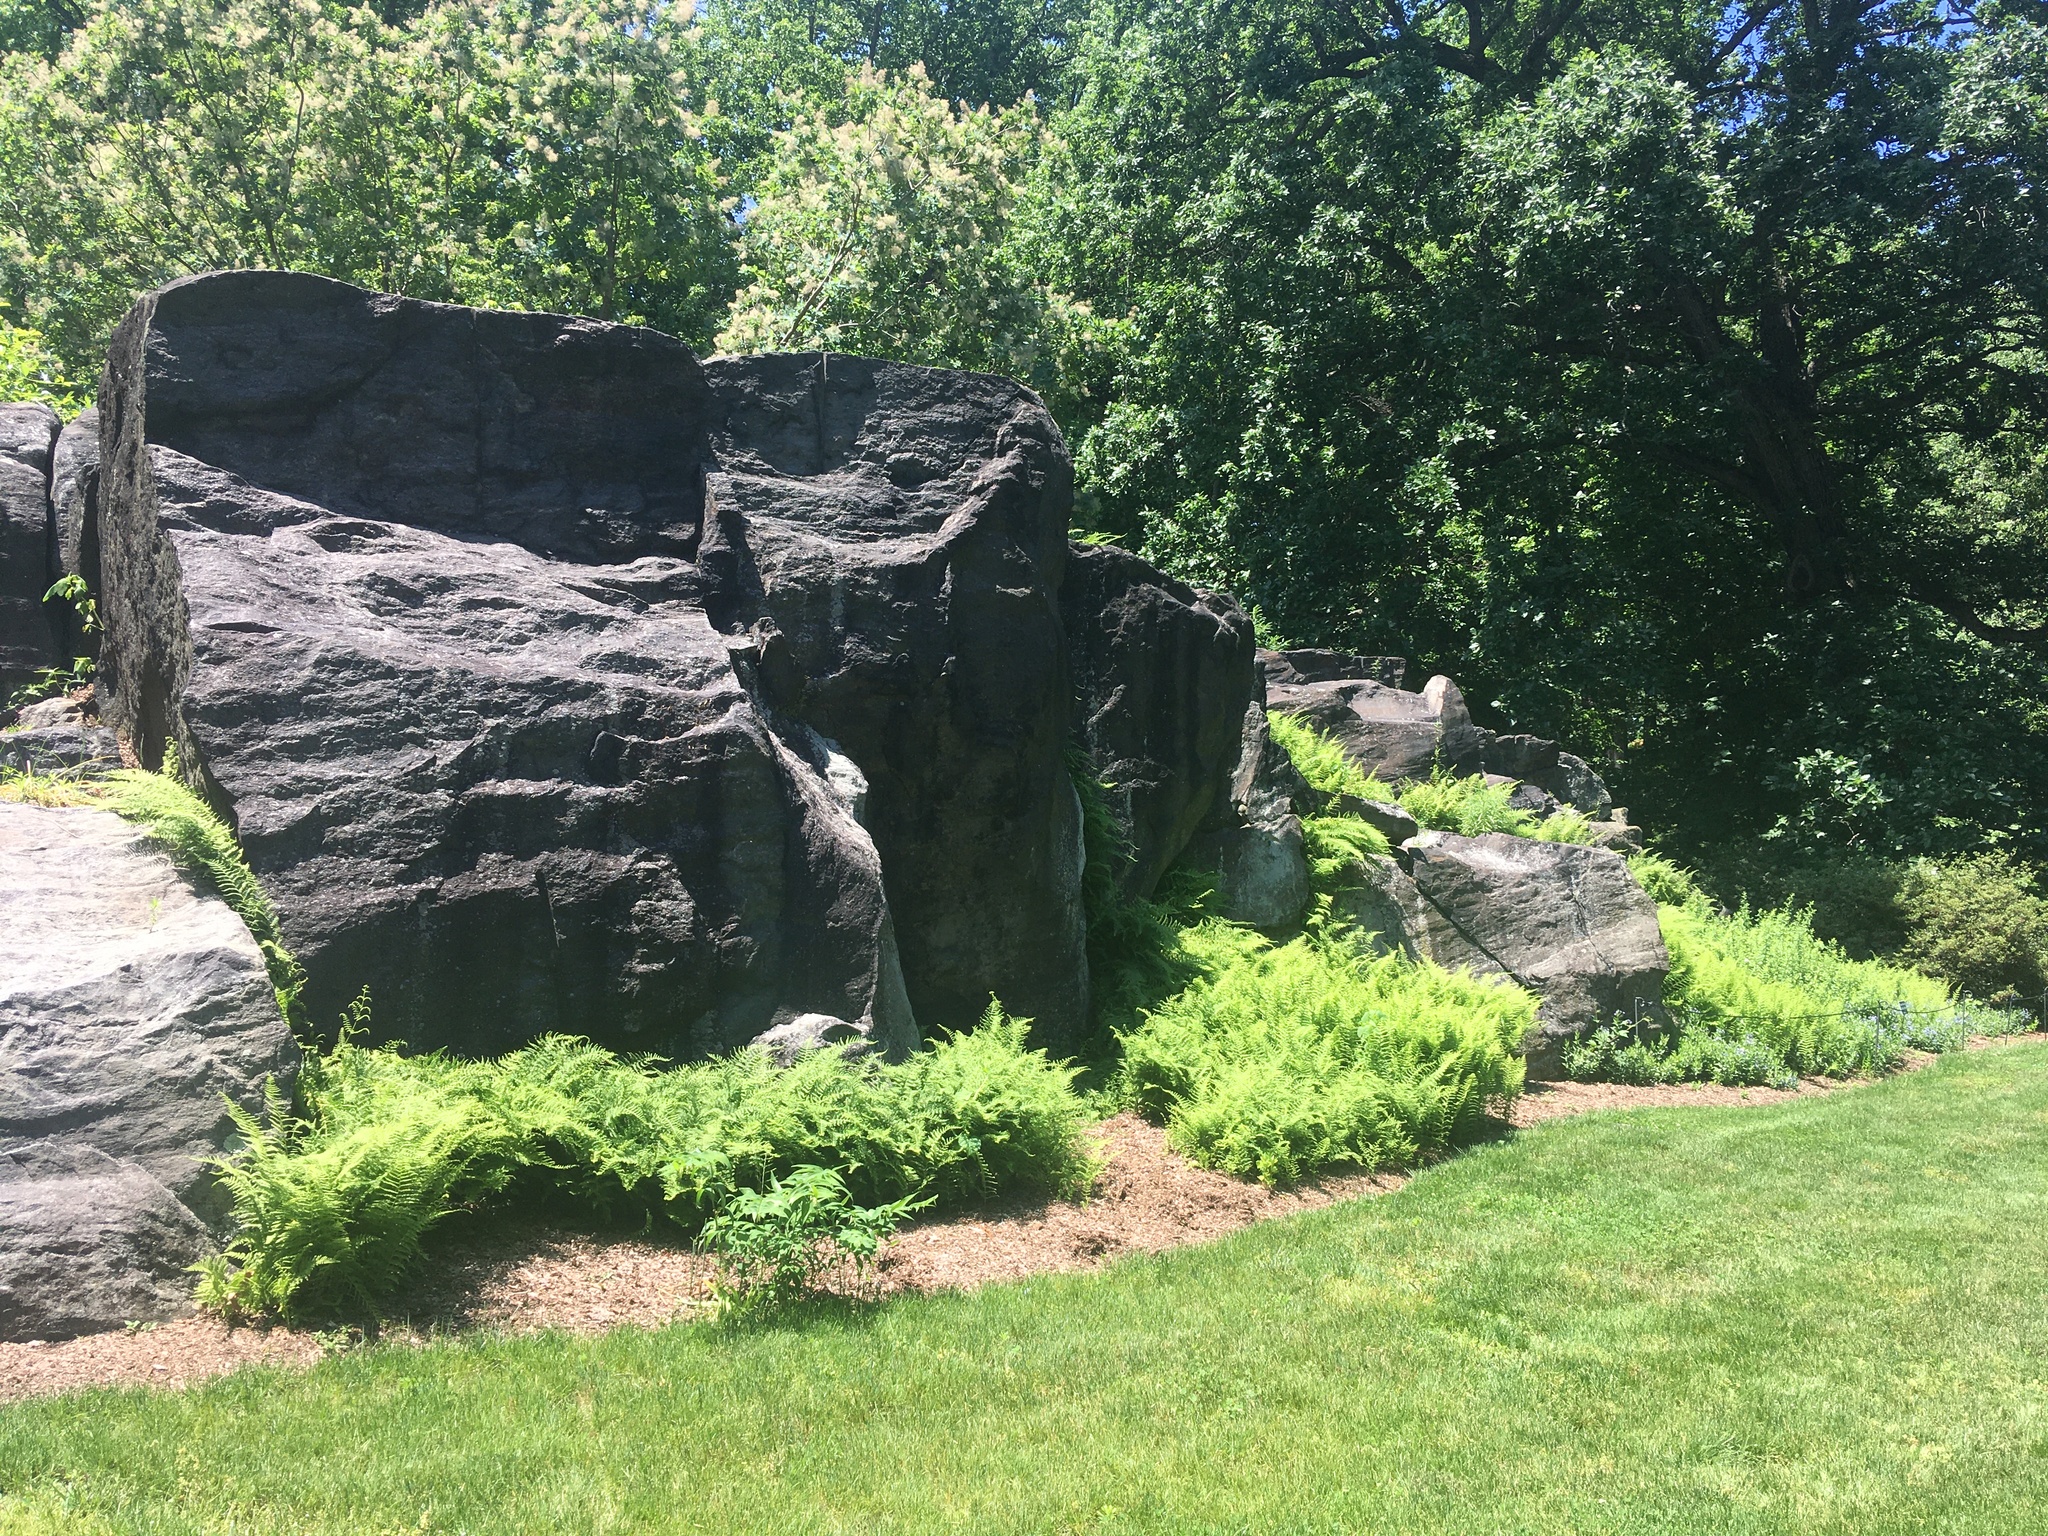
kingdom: Plantae
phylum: Tracheophyta
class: Polypodiopsida
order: Polypodiales
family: Dennstaedtiaceae
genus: Sitobolium
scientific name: Sitobolium punctilobum
